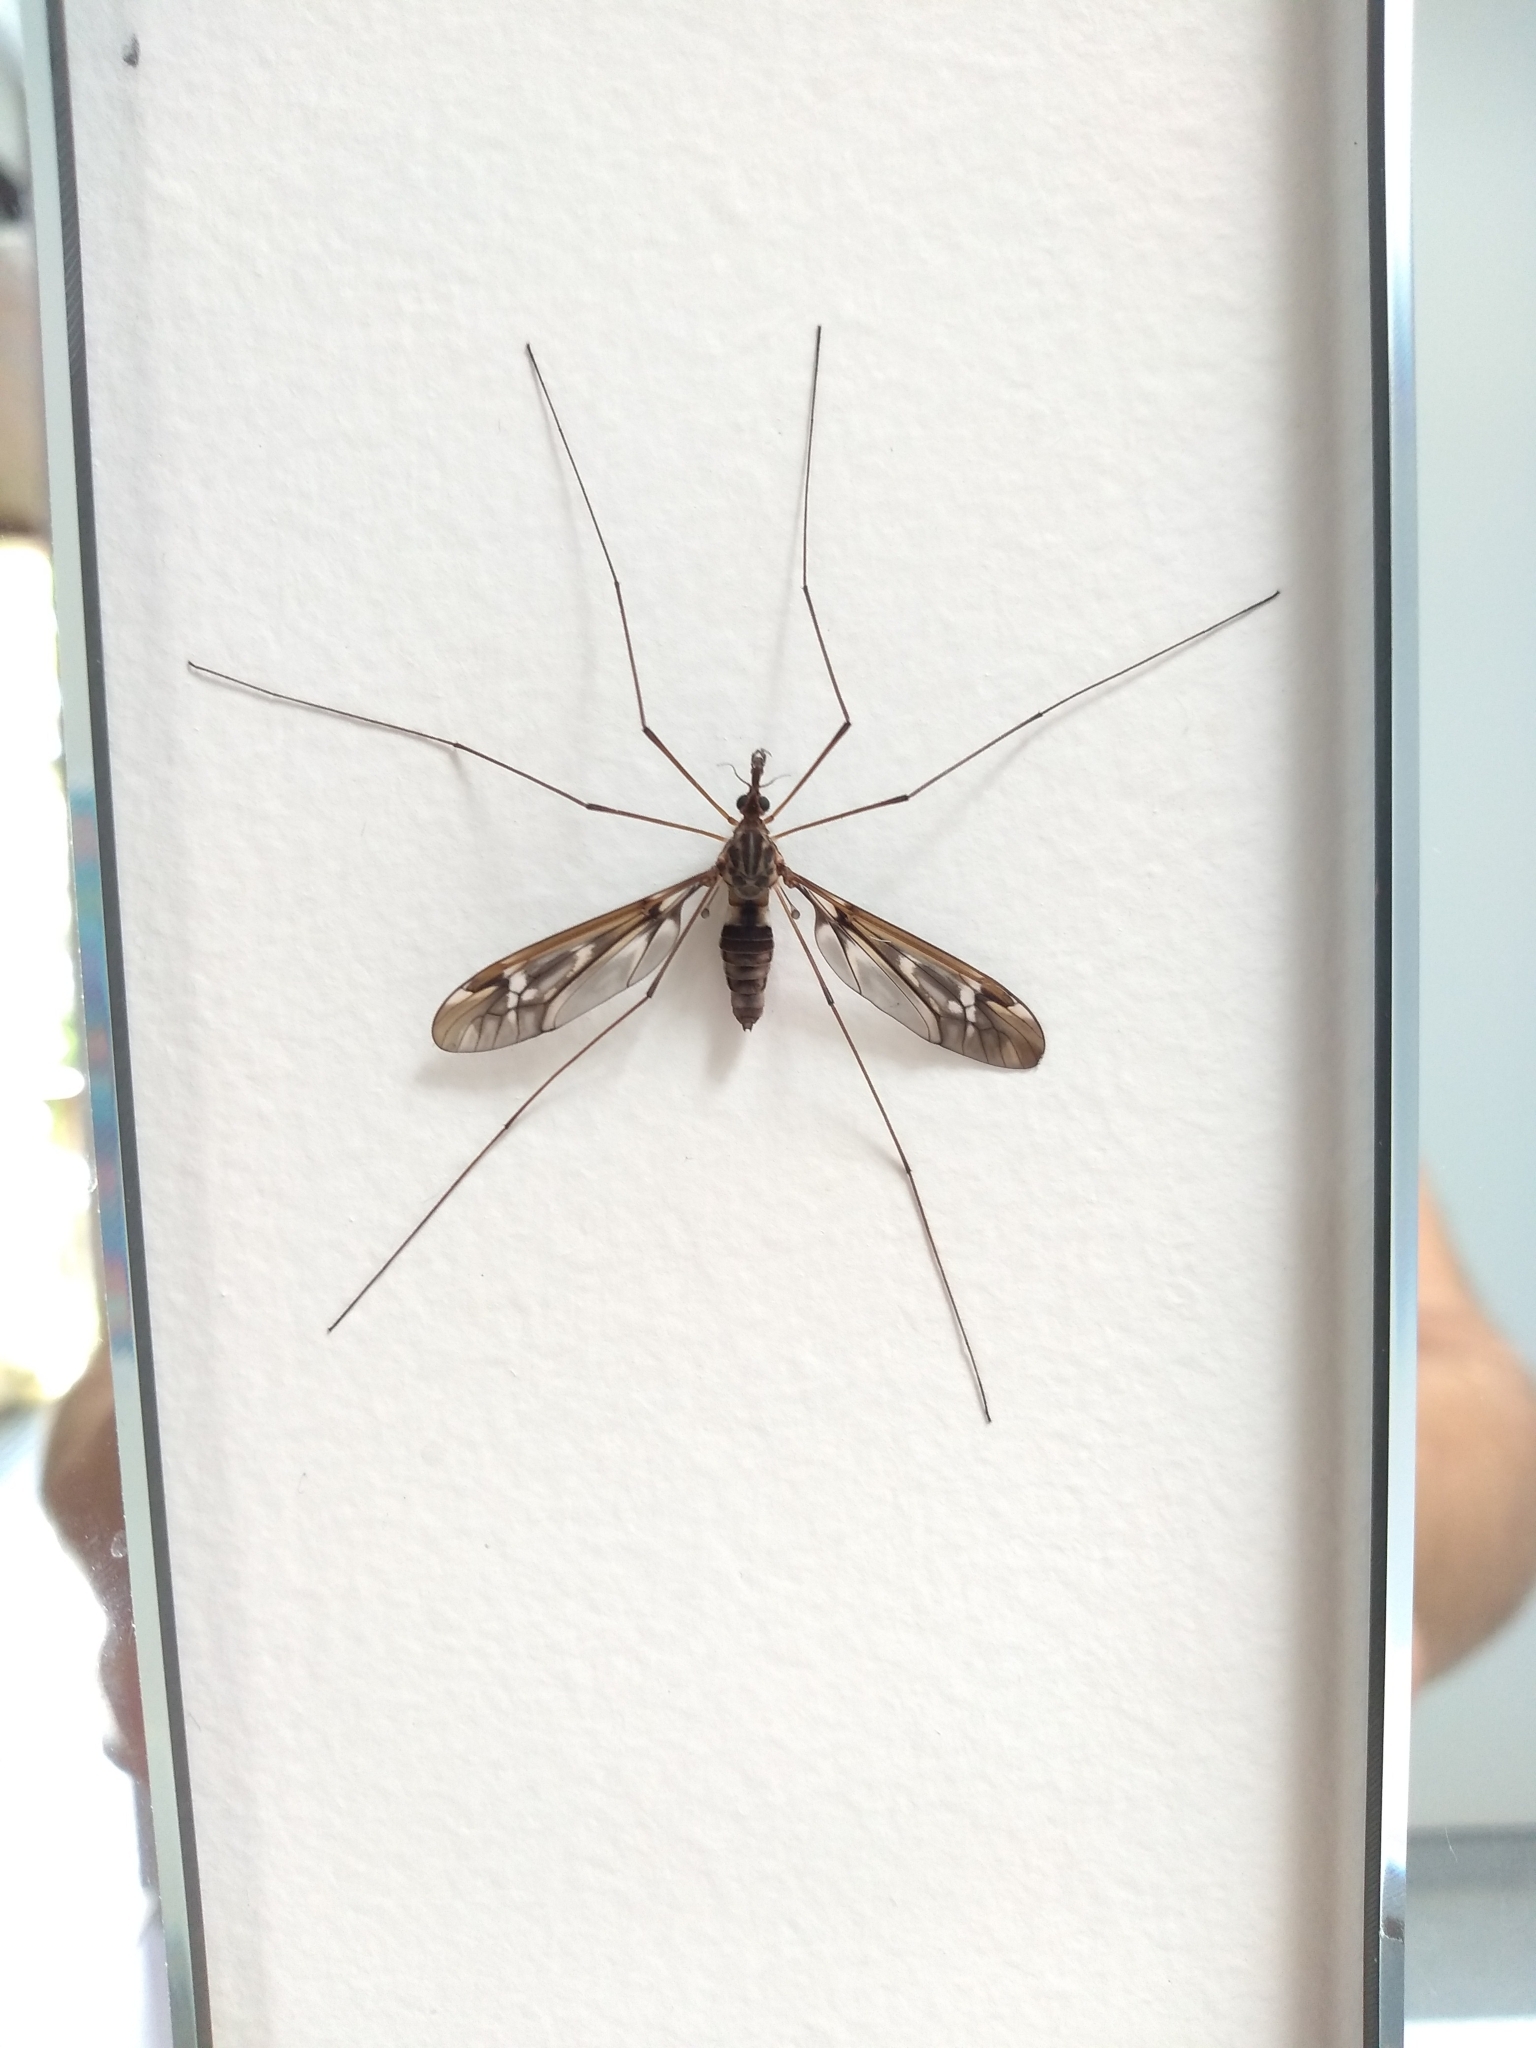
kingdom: Animalia
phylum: Arthropoda
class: Insecta
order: Diptera
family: Tipulidae
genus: Leptotarsus
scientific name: Leptotarsus huttoni
